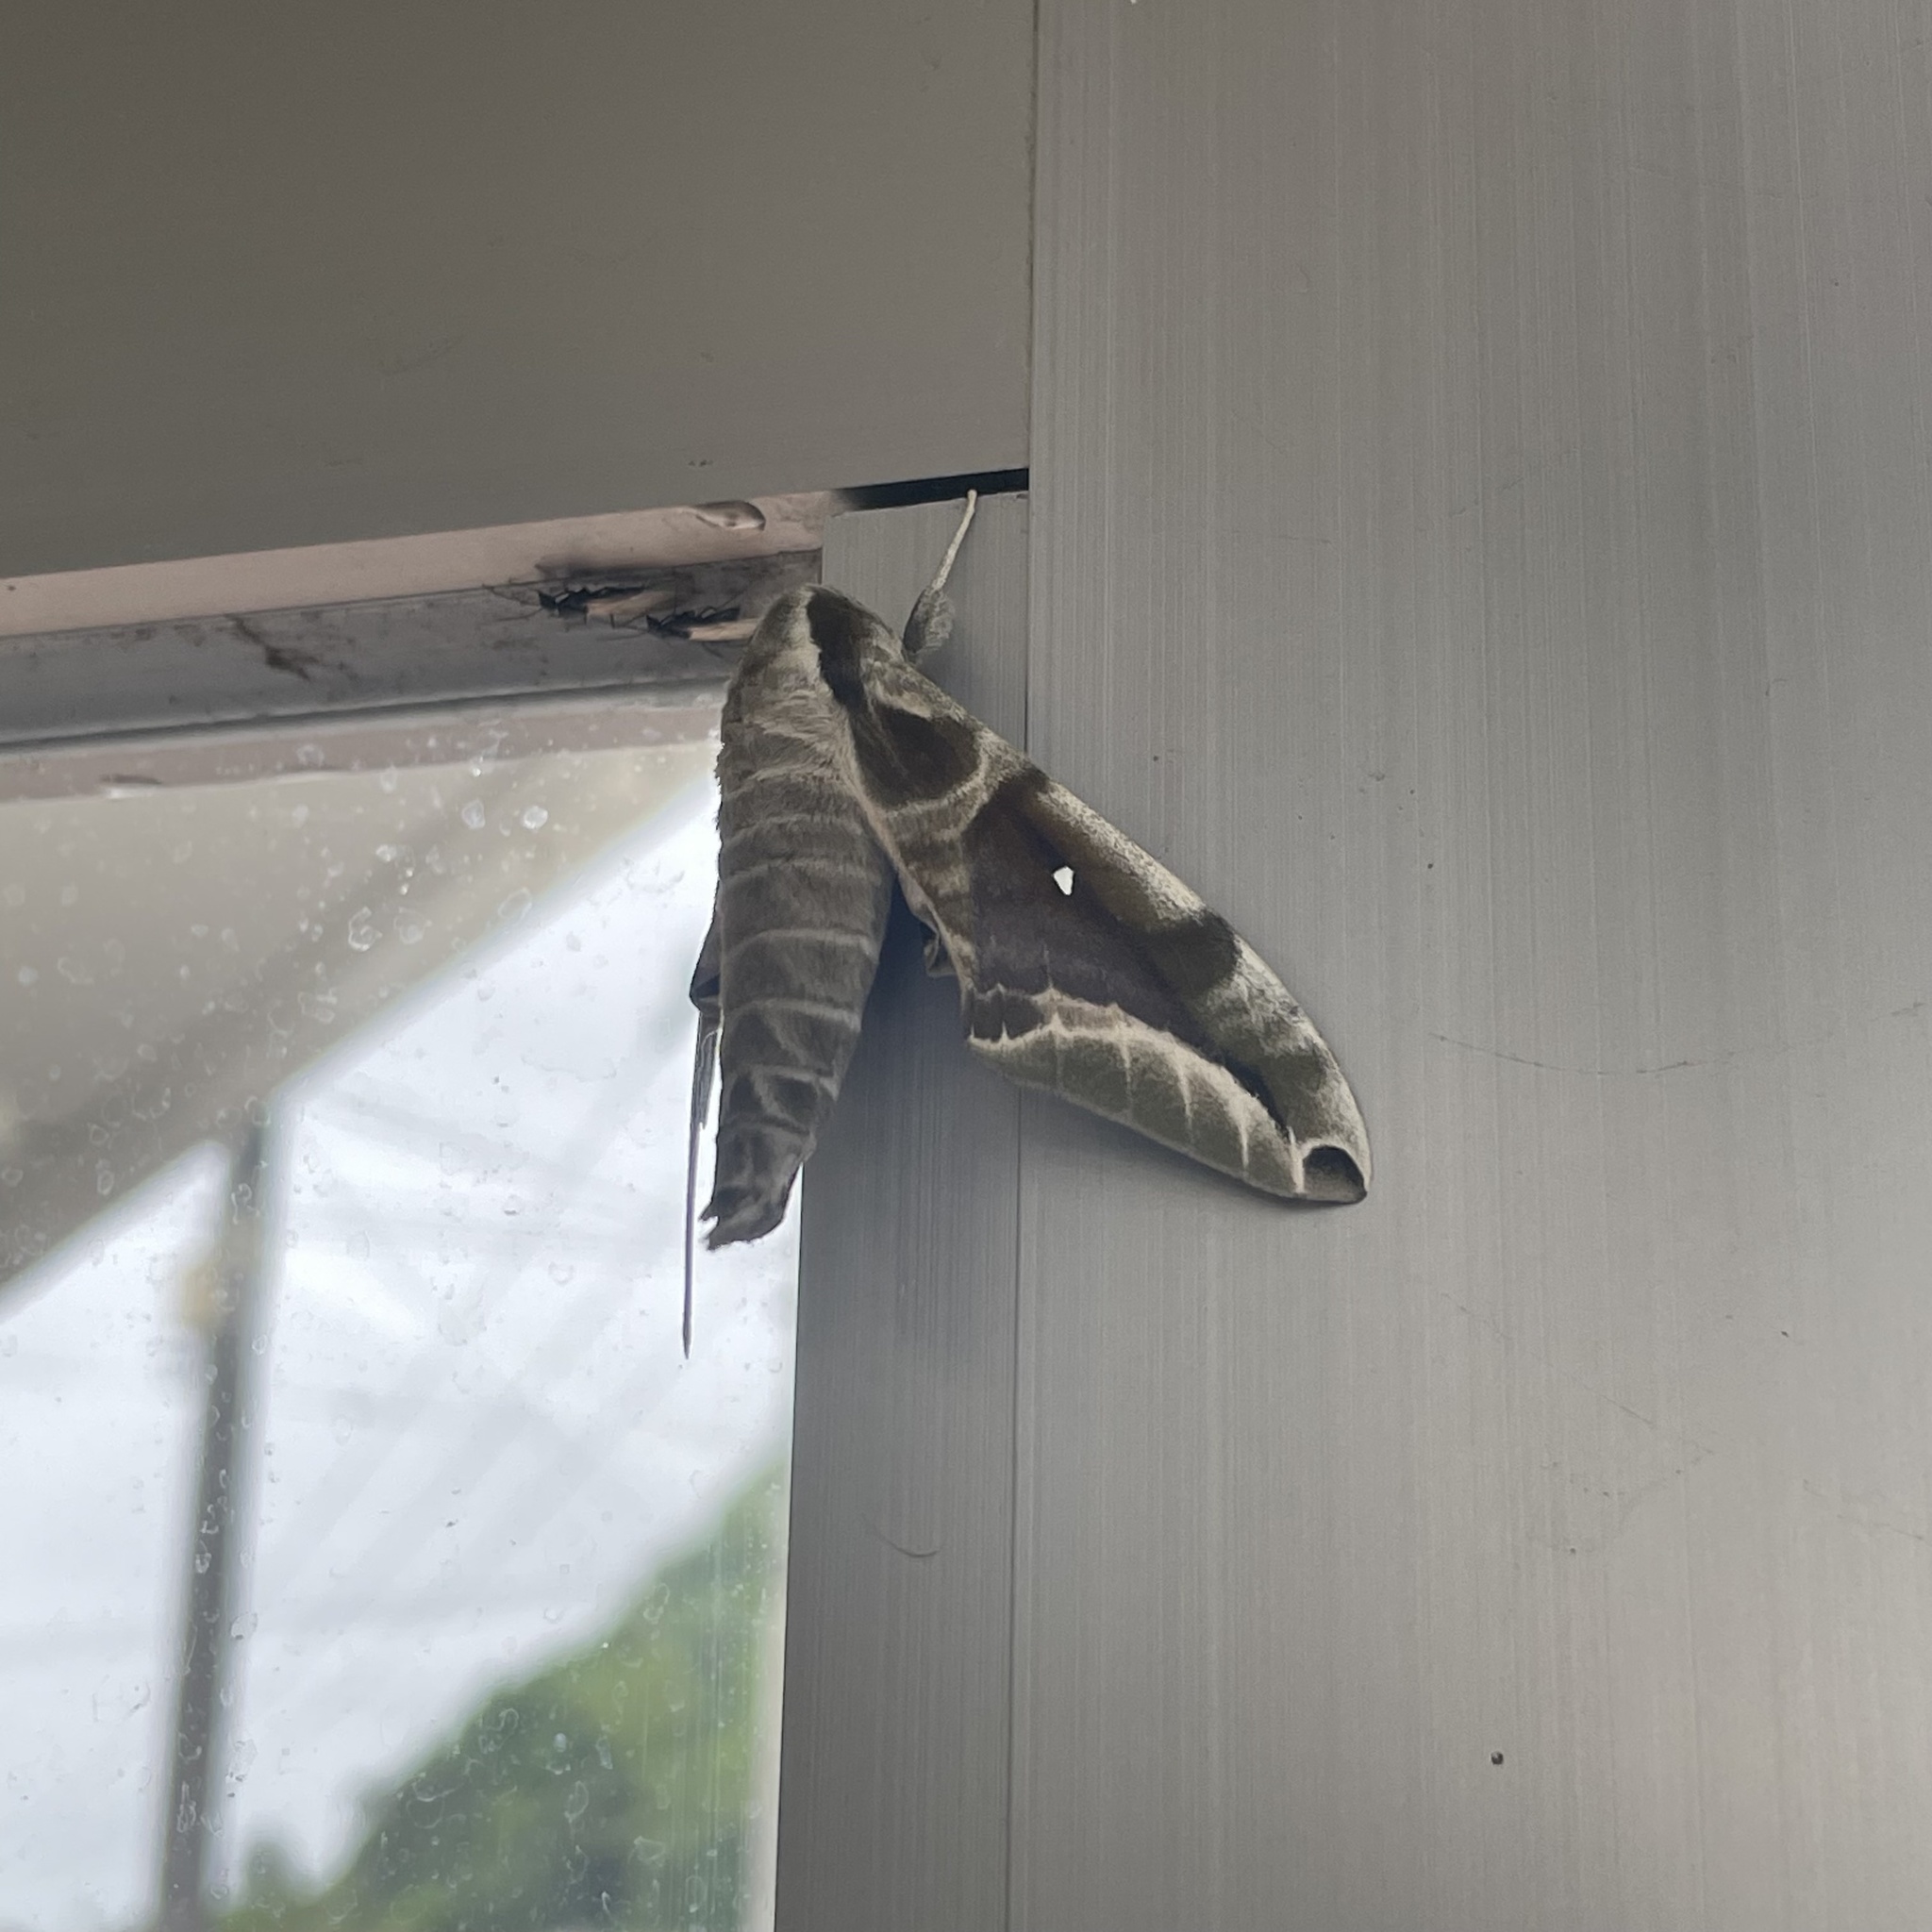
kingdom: Animalia
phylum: Arthropoda
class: Insecta
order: Lepidoptera
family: Sphingidae
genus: Parum
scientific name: Parum colligata
